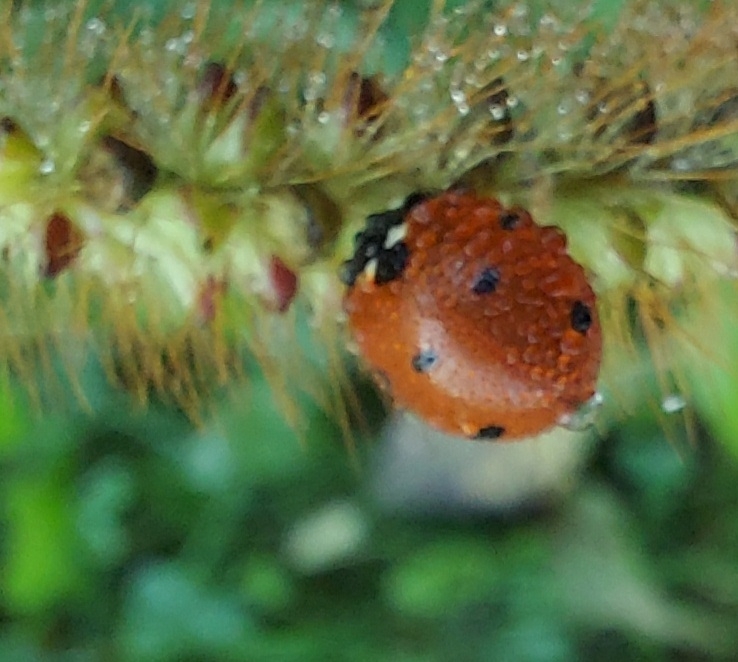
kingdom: Animalia
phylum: Arthropoda
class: Insecta
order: Coleoptera
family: Coccinellidae
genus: Coccinella
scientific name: Coccinella septempunctata
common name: Sevenspotted lady beetle
